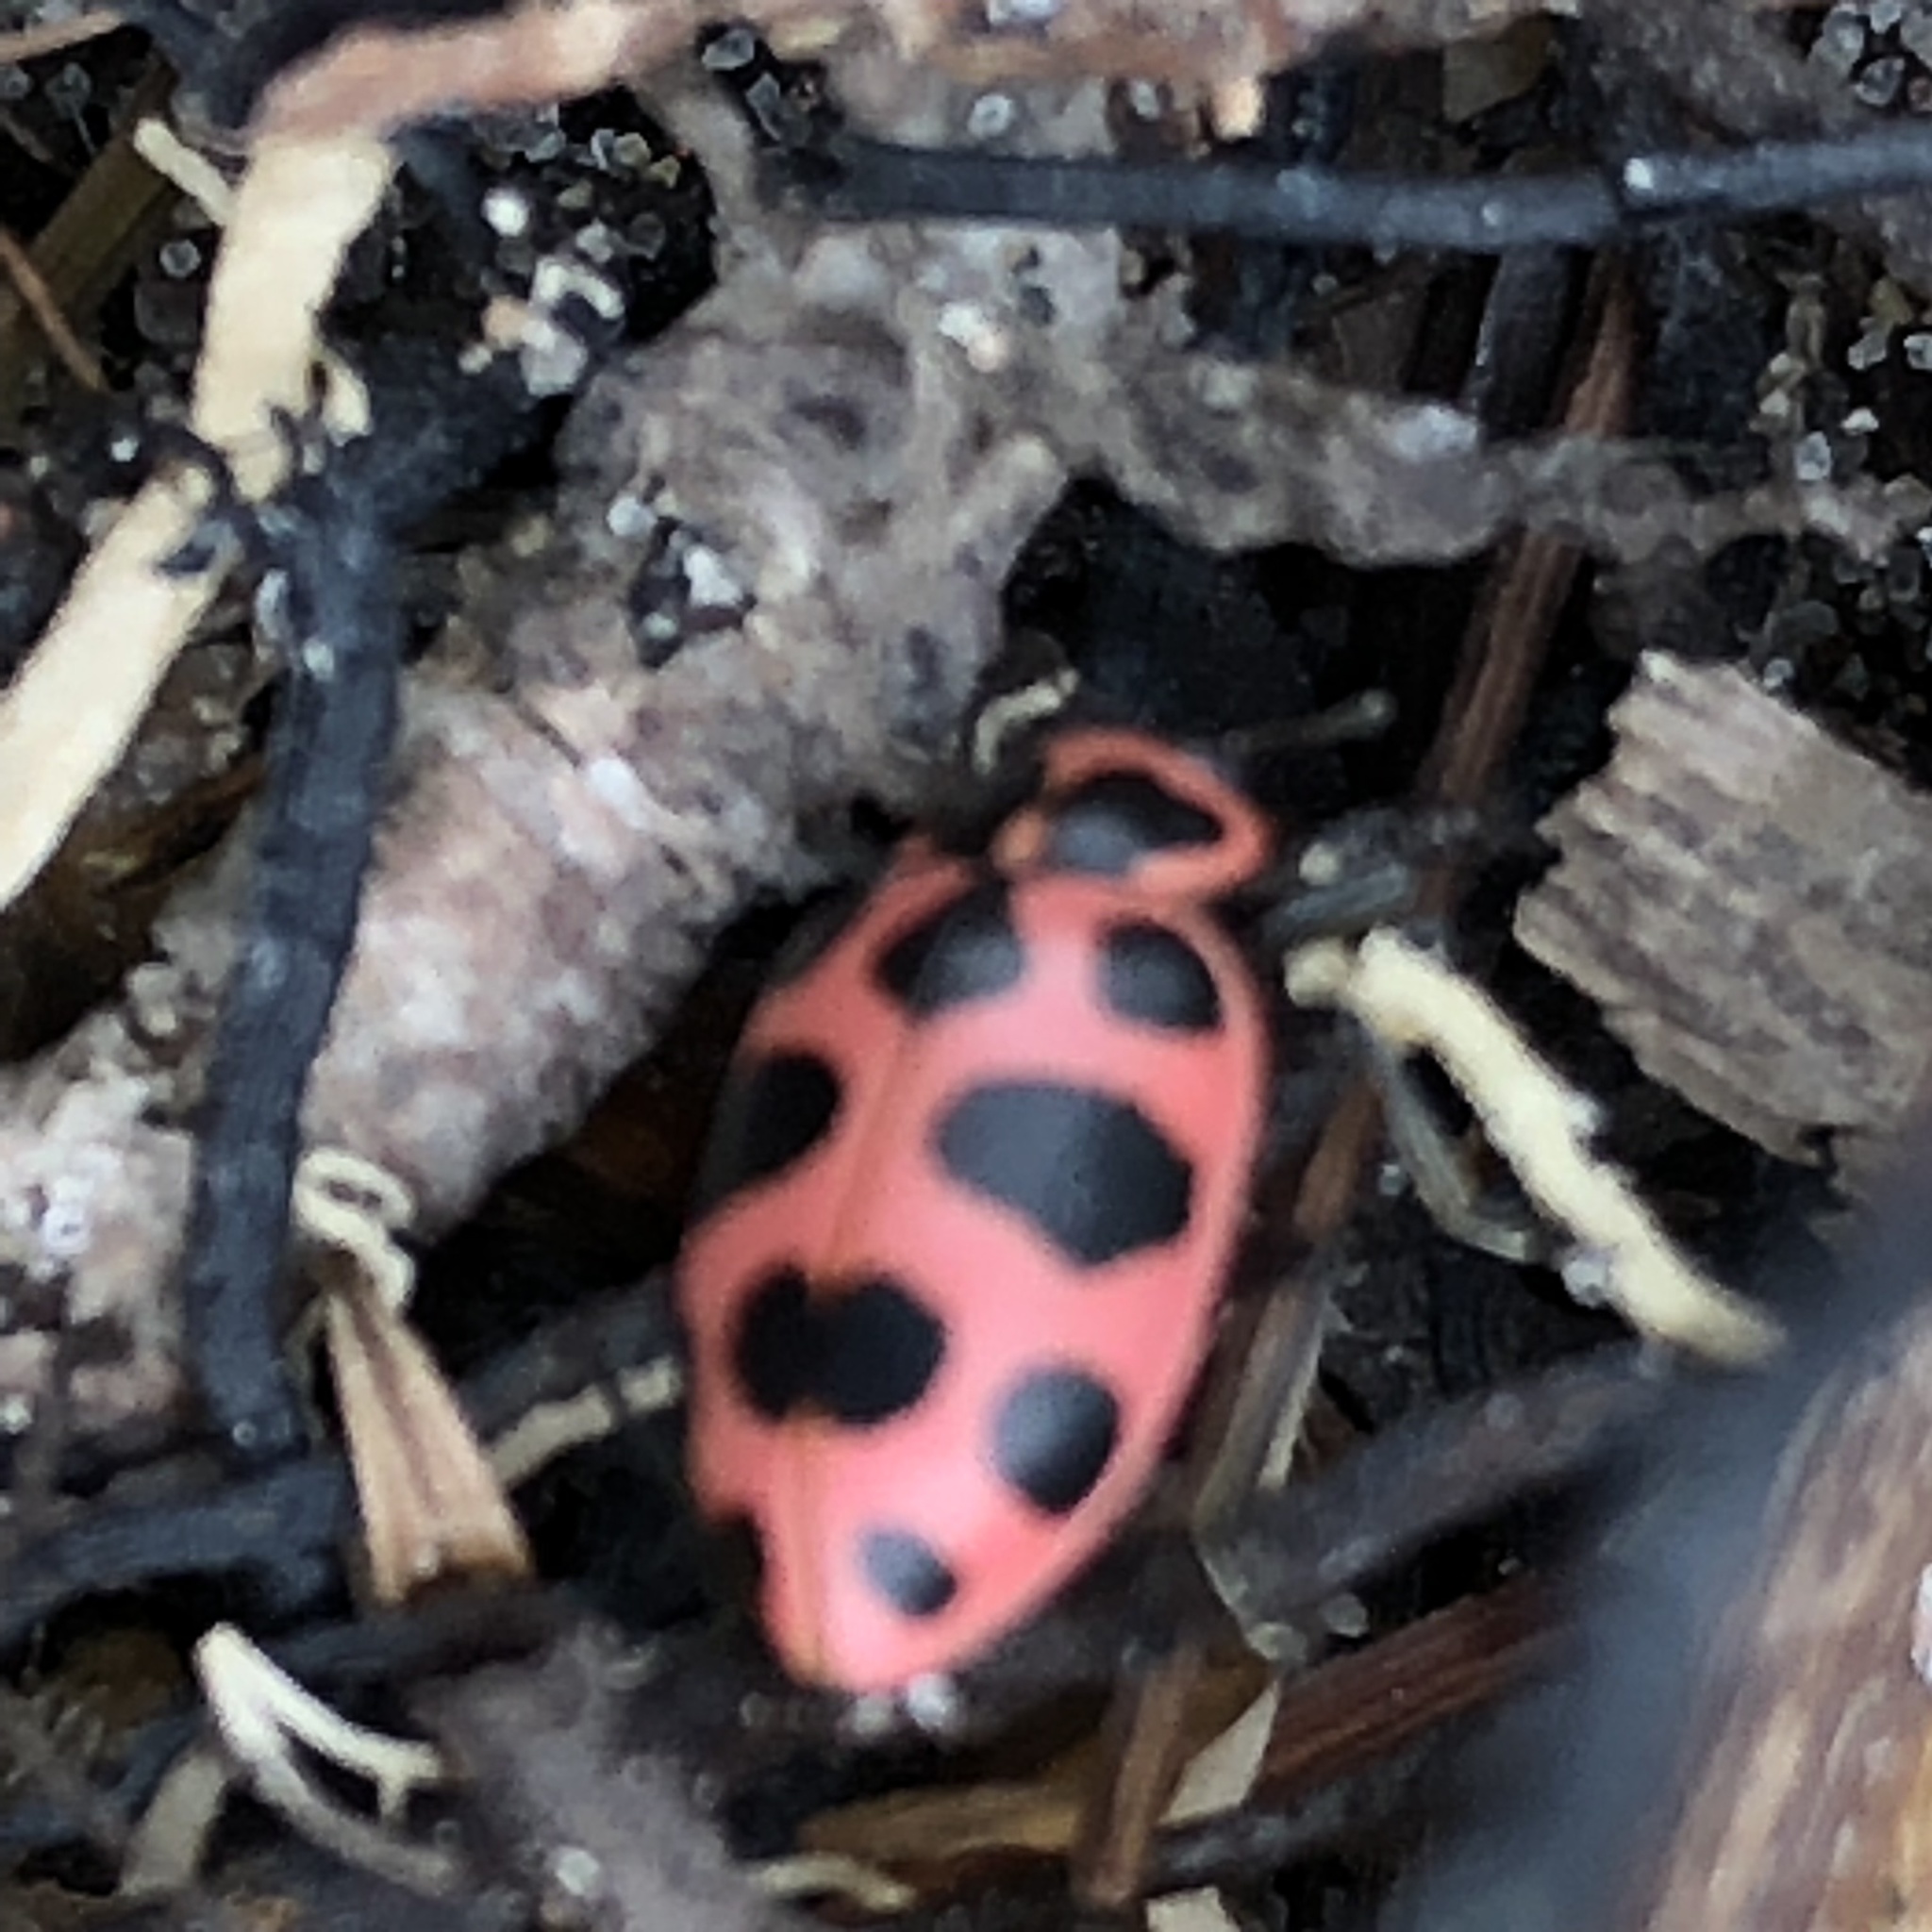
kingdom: Animalia
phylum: Arthropoda
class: Insecta
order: Coleoptera
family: Coccinellidae
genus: Coleomegilla
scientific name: Coleomegilla maculata
